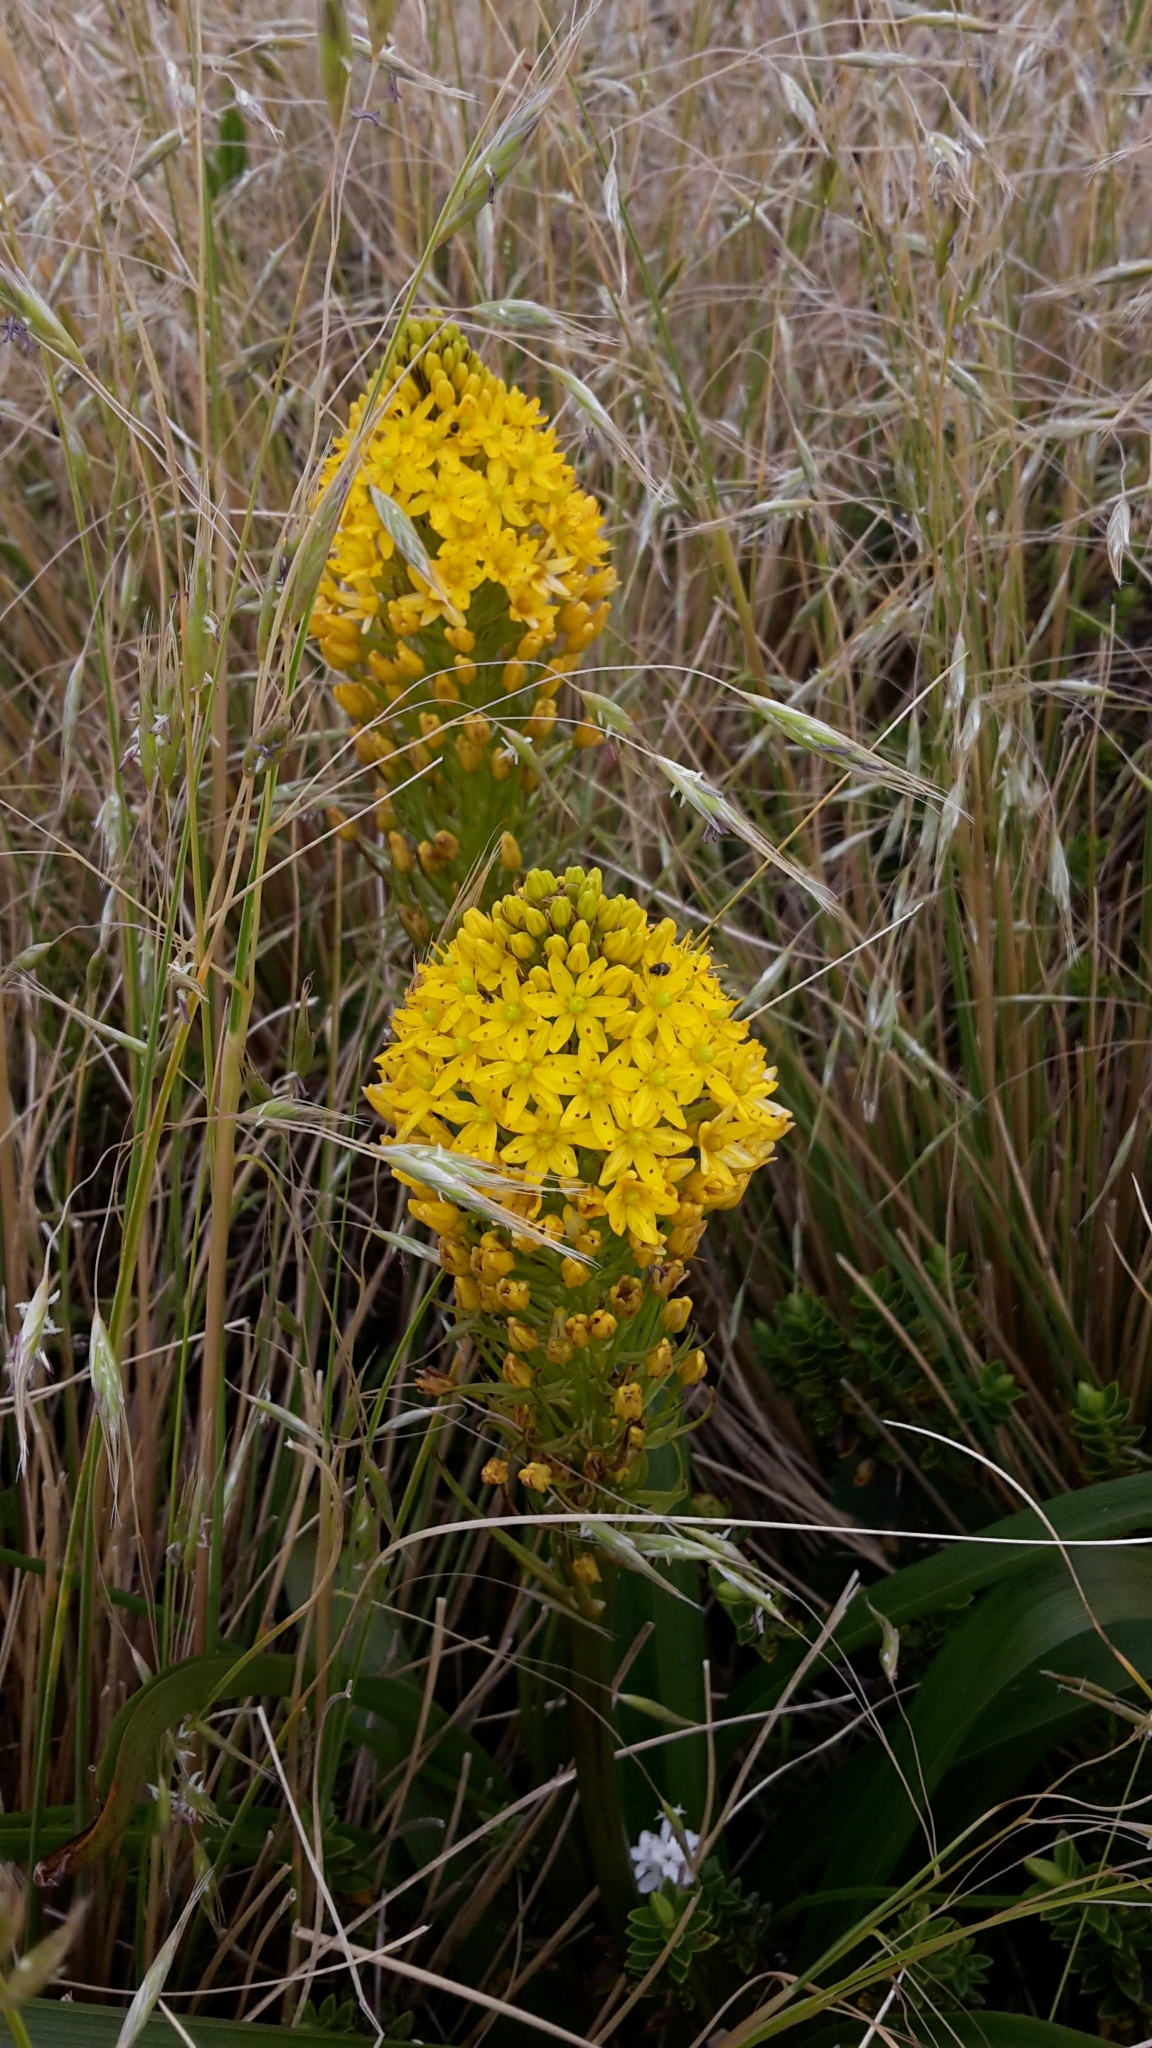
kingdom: Plantae
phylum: Tracheophyta
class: Liliopsida
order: Asparagales
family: Asphodelaceae
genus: Bulbinella
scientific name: Bulbinella gibbsii
